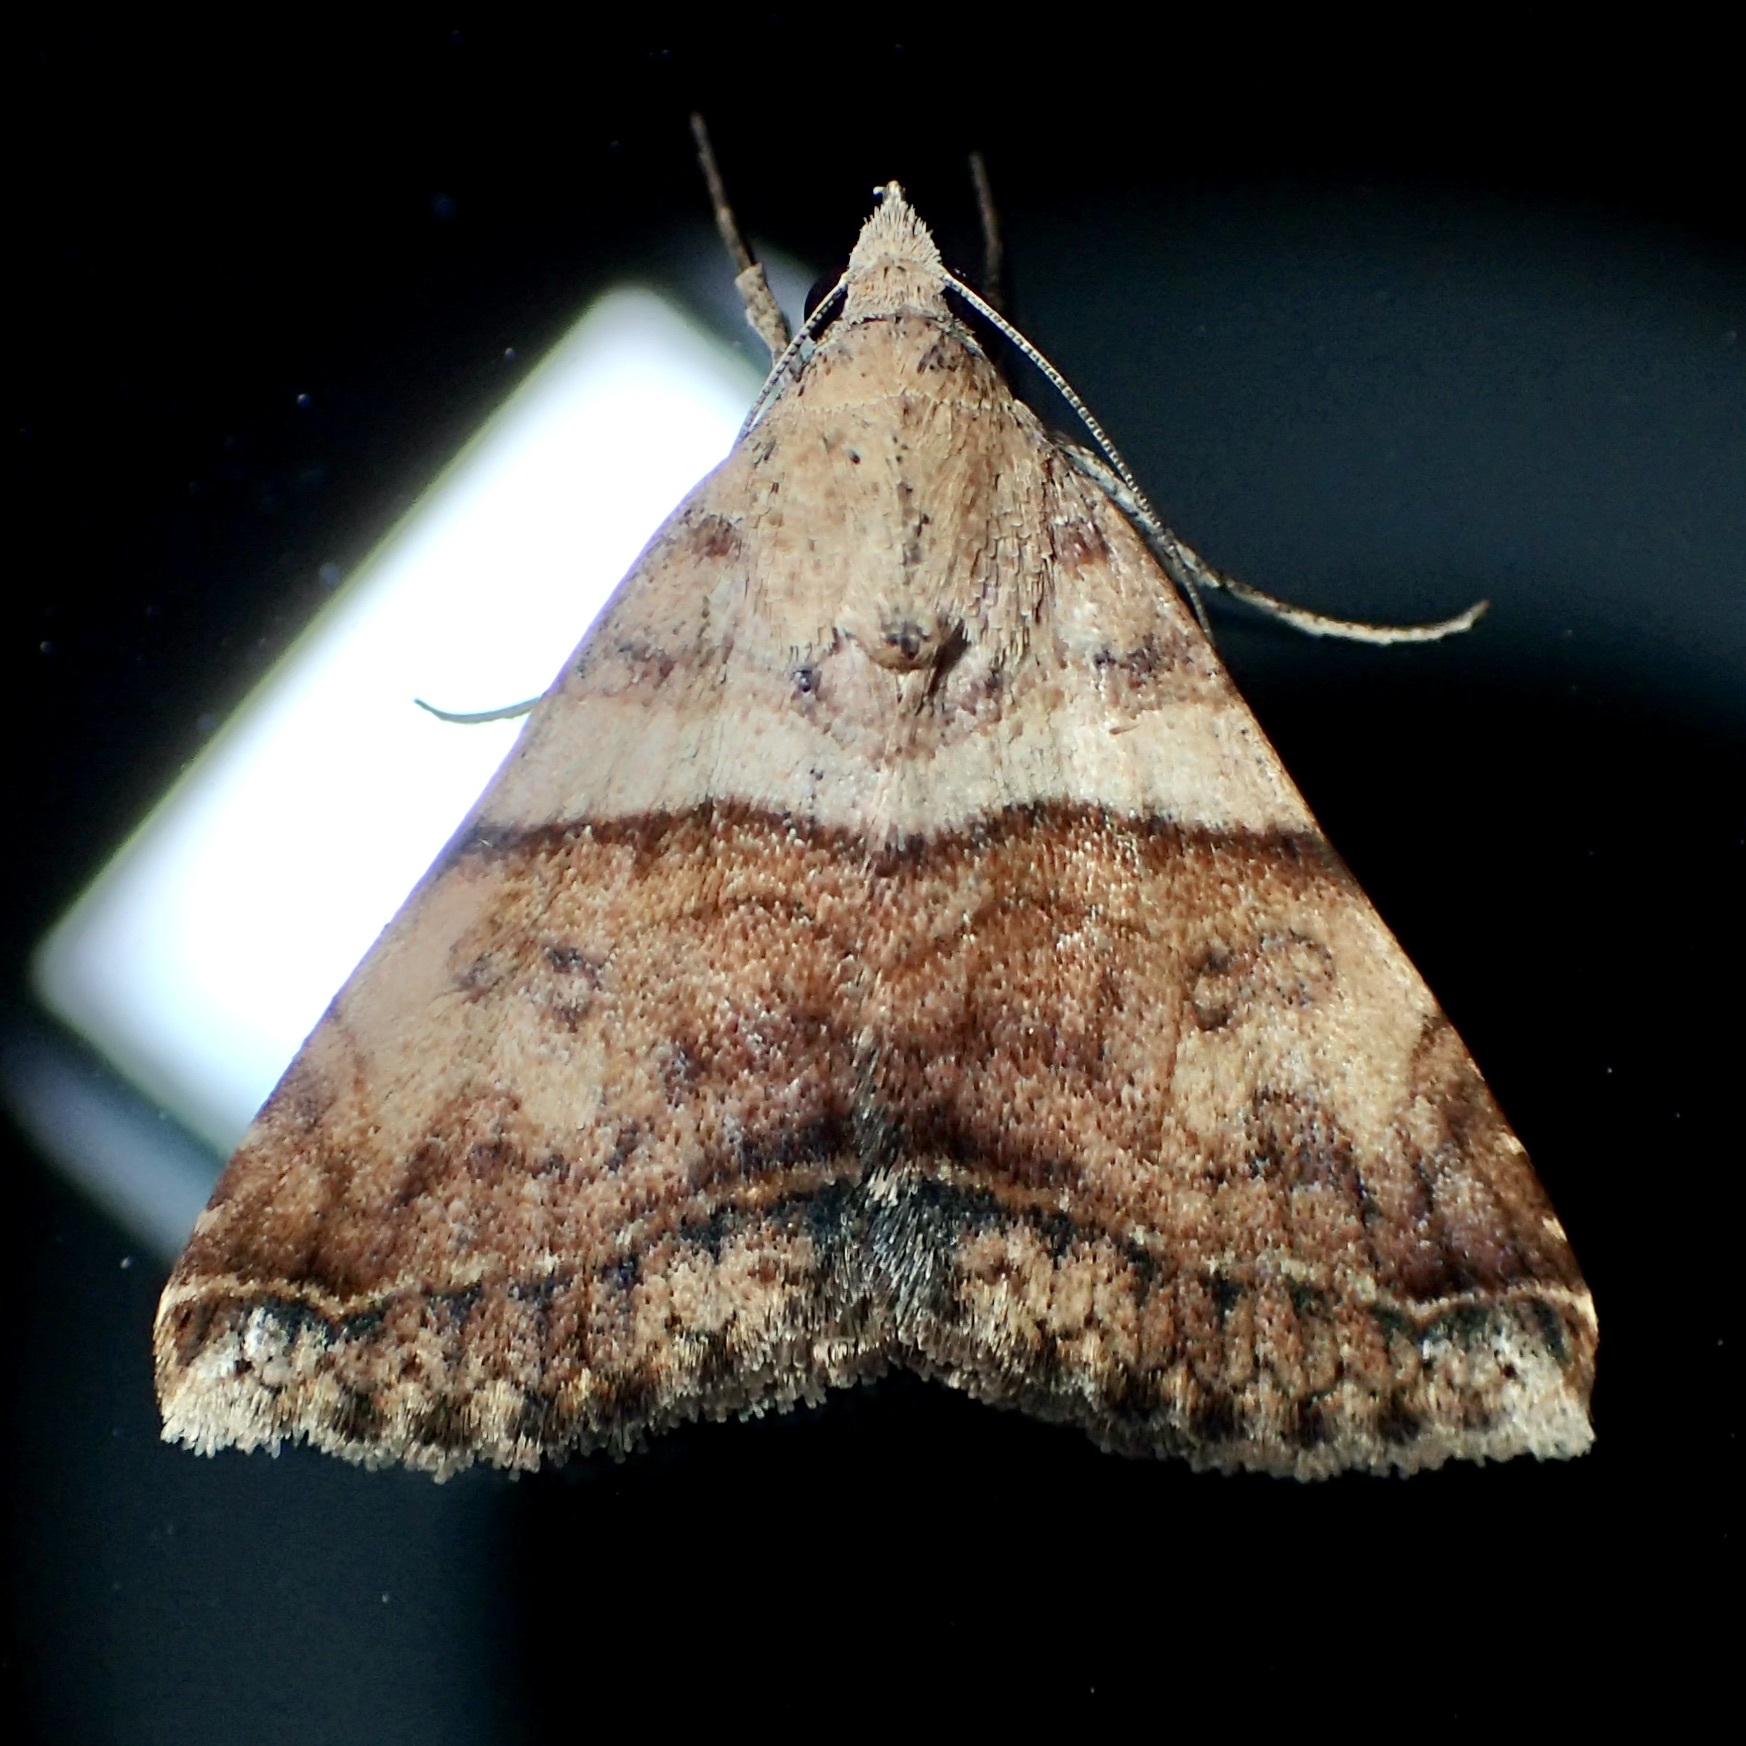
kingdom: Animalia
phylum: Arthropoda
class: Insecta
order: Lepidoptera
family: Erebidae
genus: Panula
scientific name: Panula inconstans
